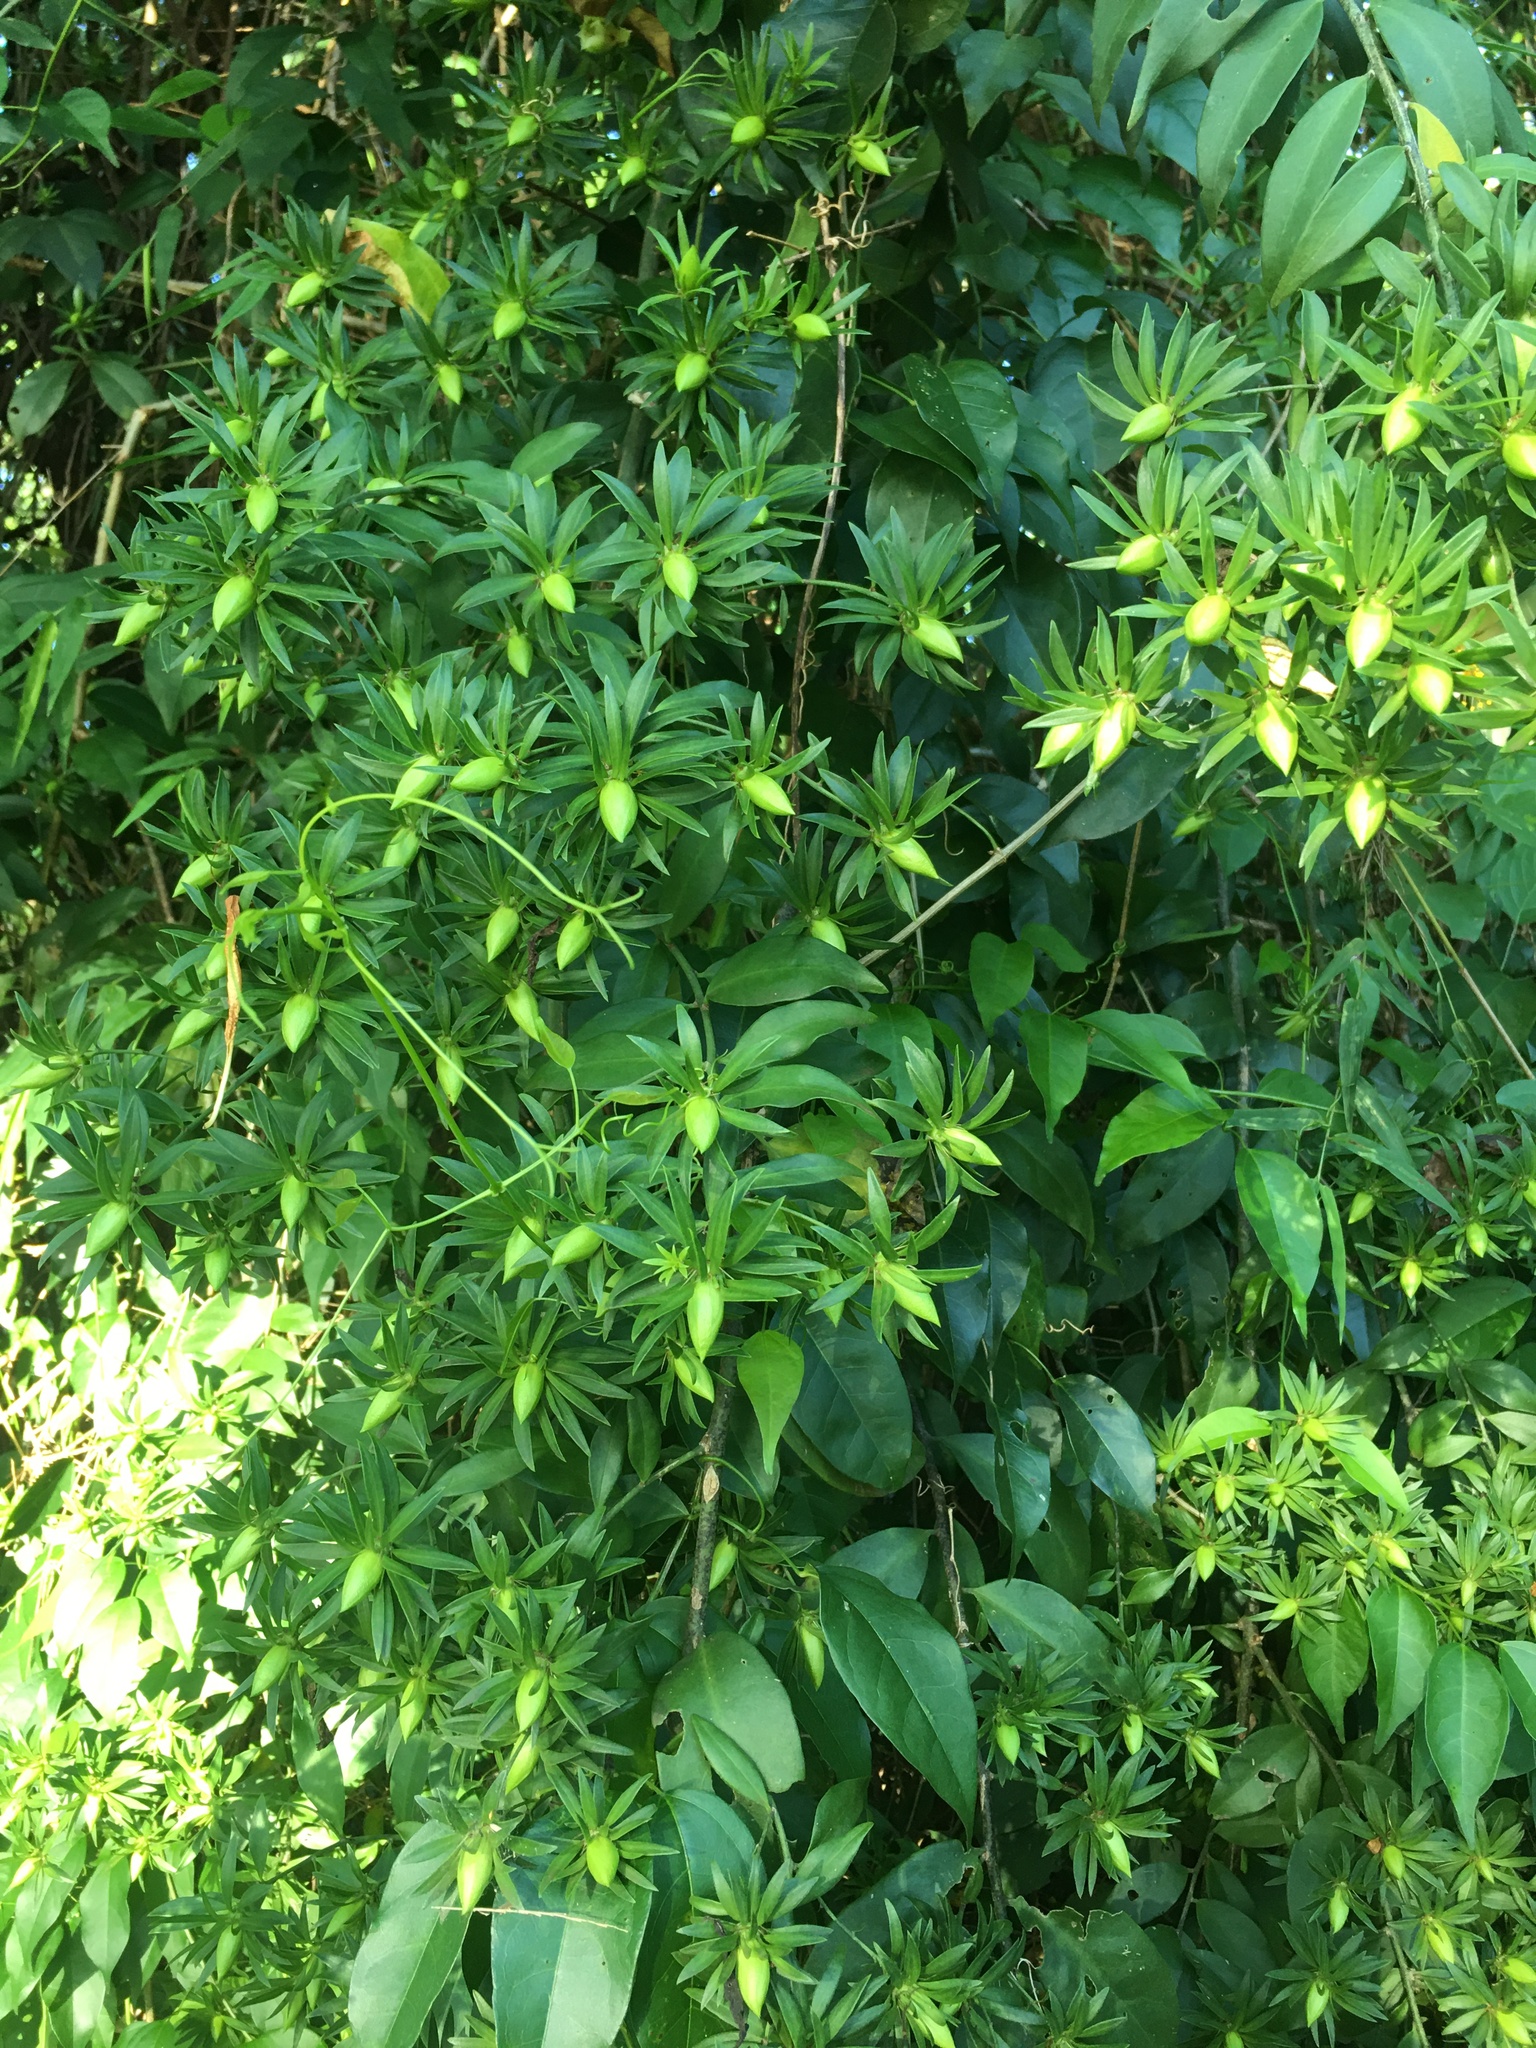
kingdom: Plantae
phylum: Tracheophyta
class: Magnoliopsida
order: Caryophyllales
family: Cactaceae
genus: Pereskia
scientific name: Pereskia aculeata
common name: Barbados gooseberry
